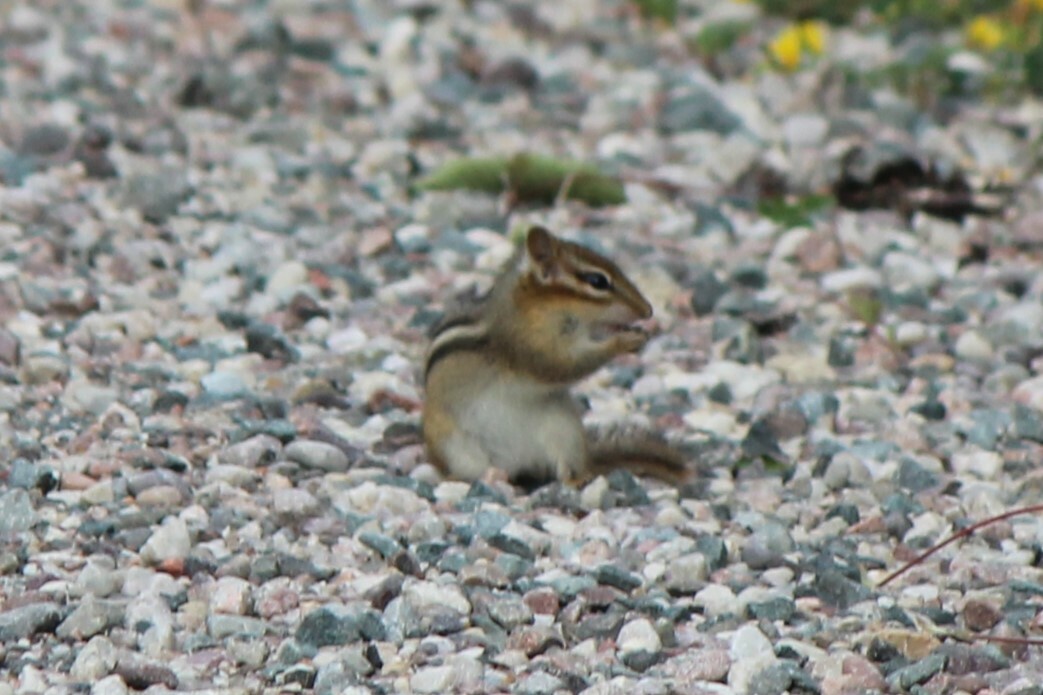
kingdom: Animalia
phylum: Chordata
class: Mammalia
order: Rodentia
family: Sciuridae
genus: Tamias
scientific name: Tamias striatus
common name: Eastern chipmunk
